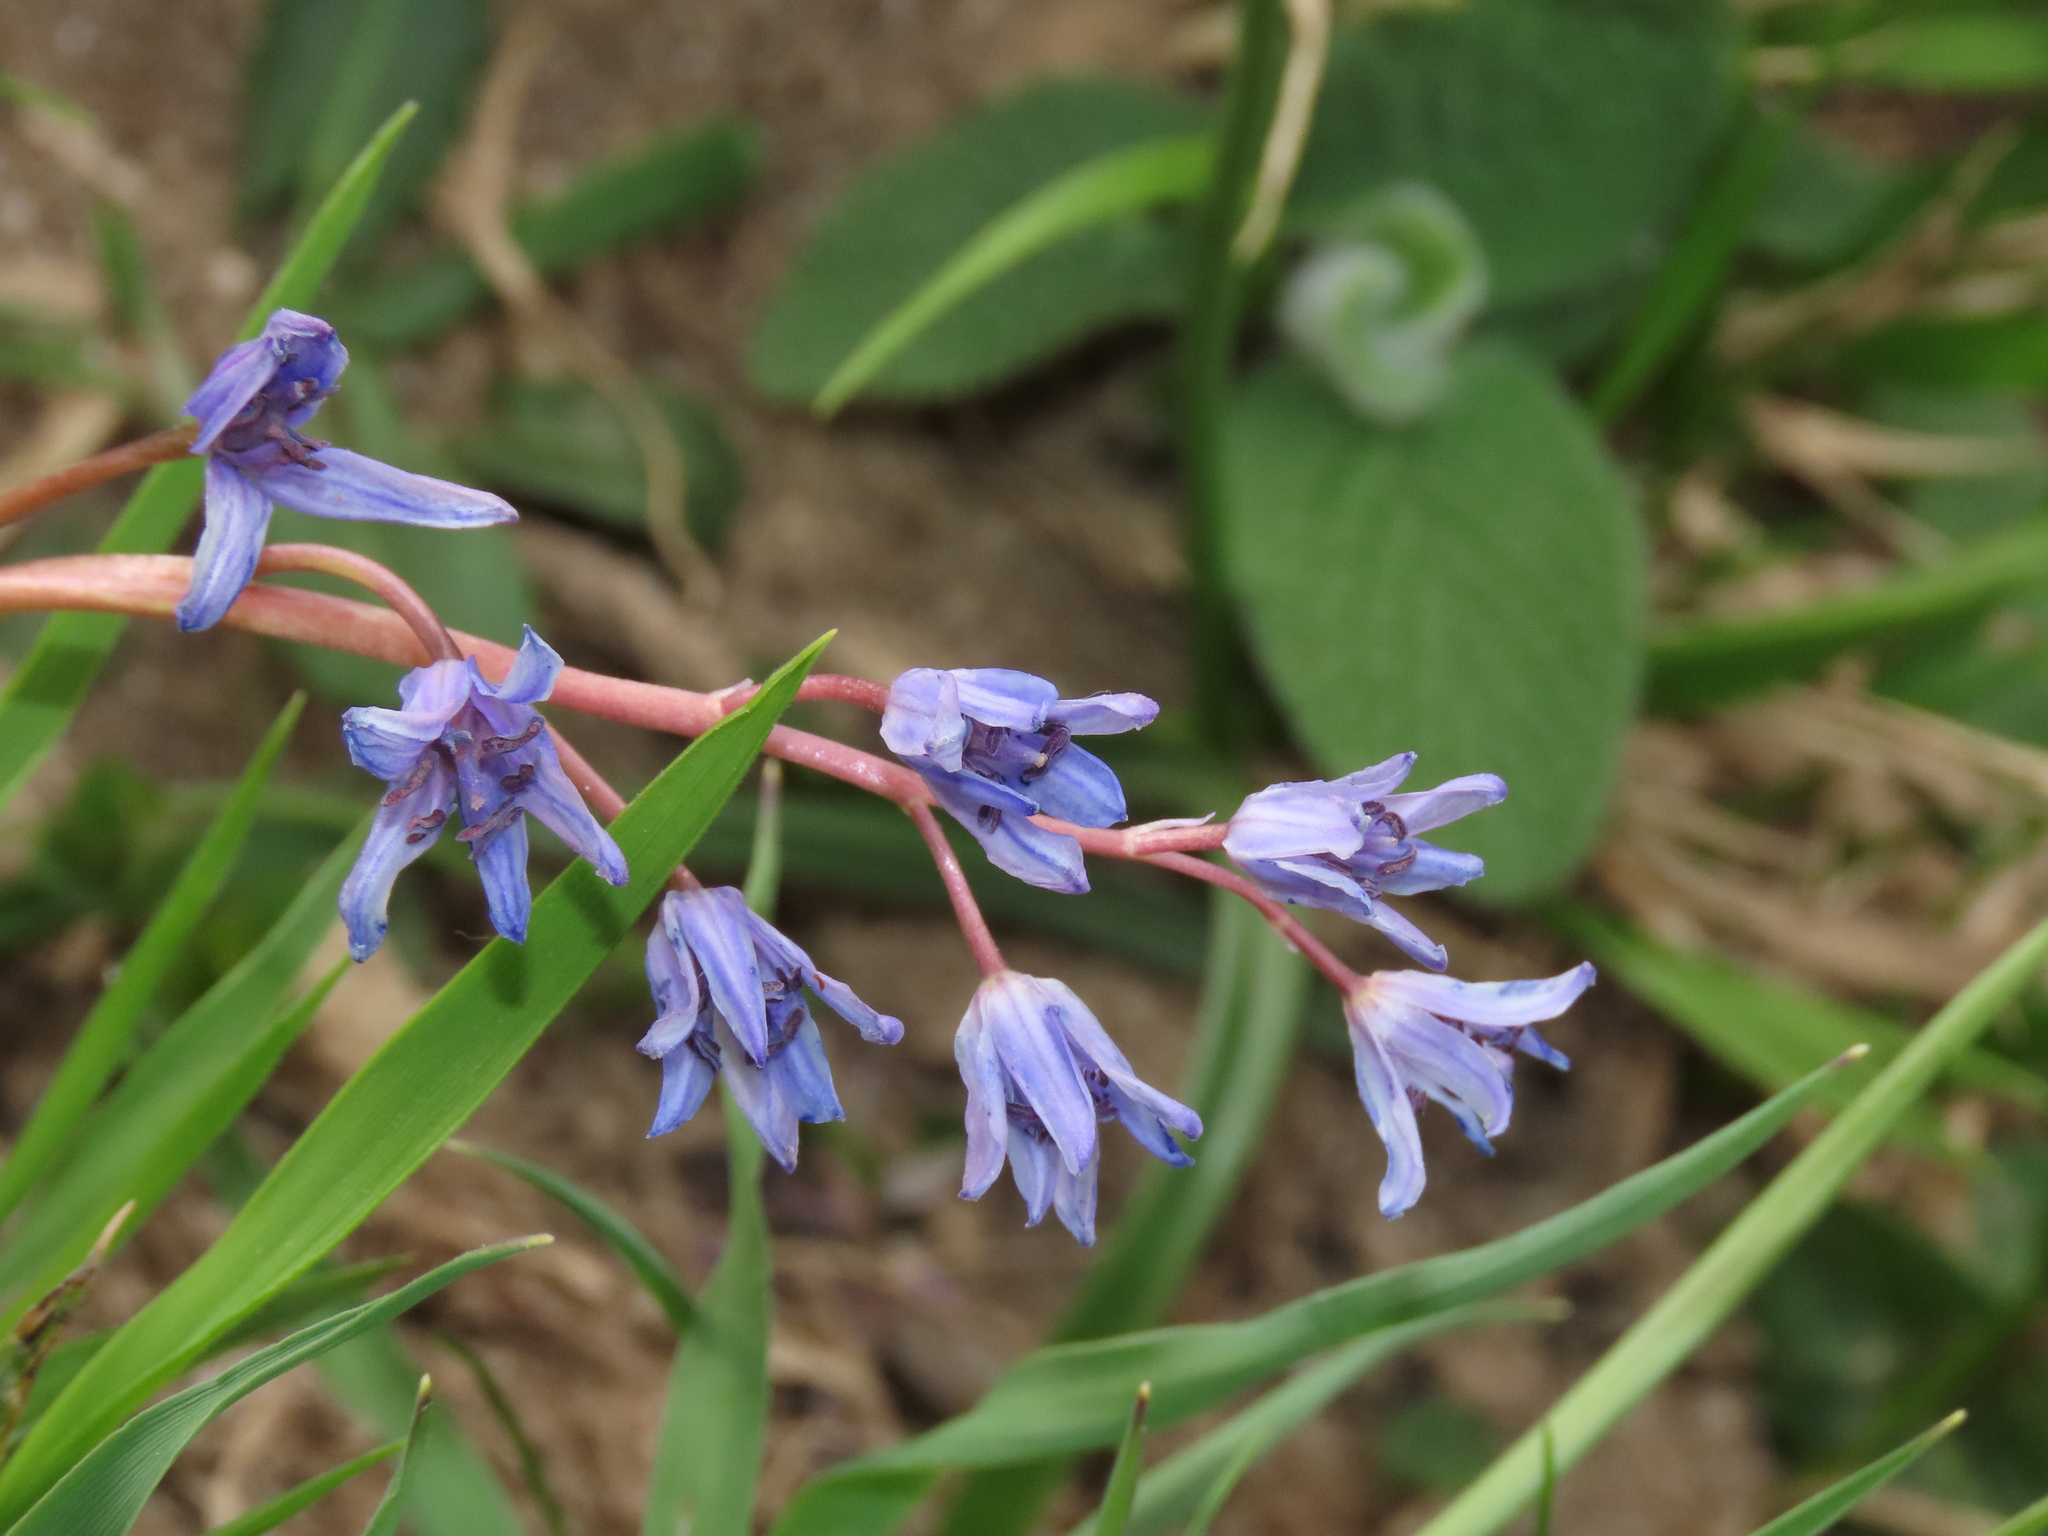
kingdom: Plantae
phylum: Tracheophyta
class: Liliopsida
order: Asparagales
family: Asparagaceae
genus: Scilla
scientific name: Scilla bifolia
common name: Alpine squill
